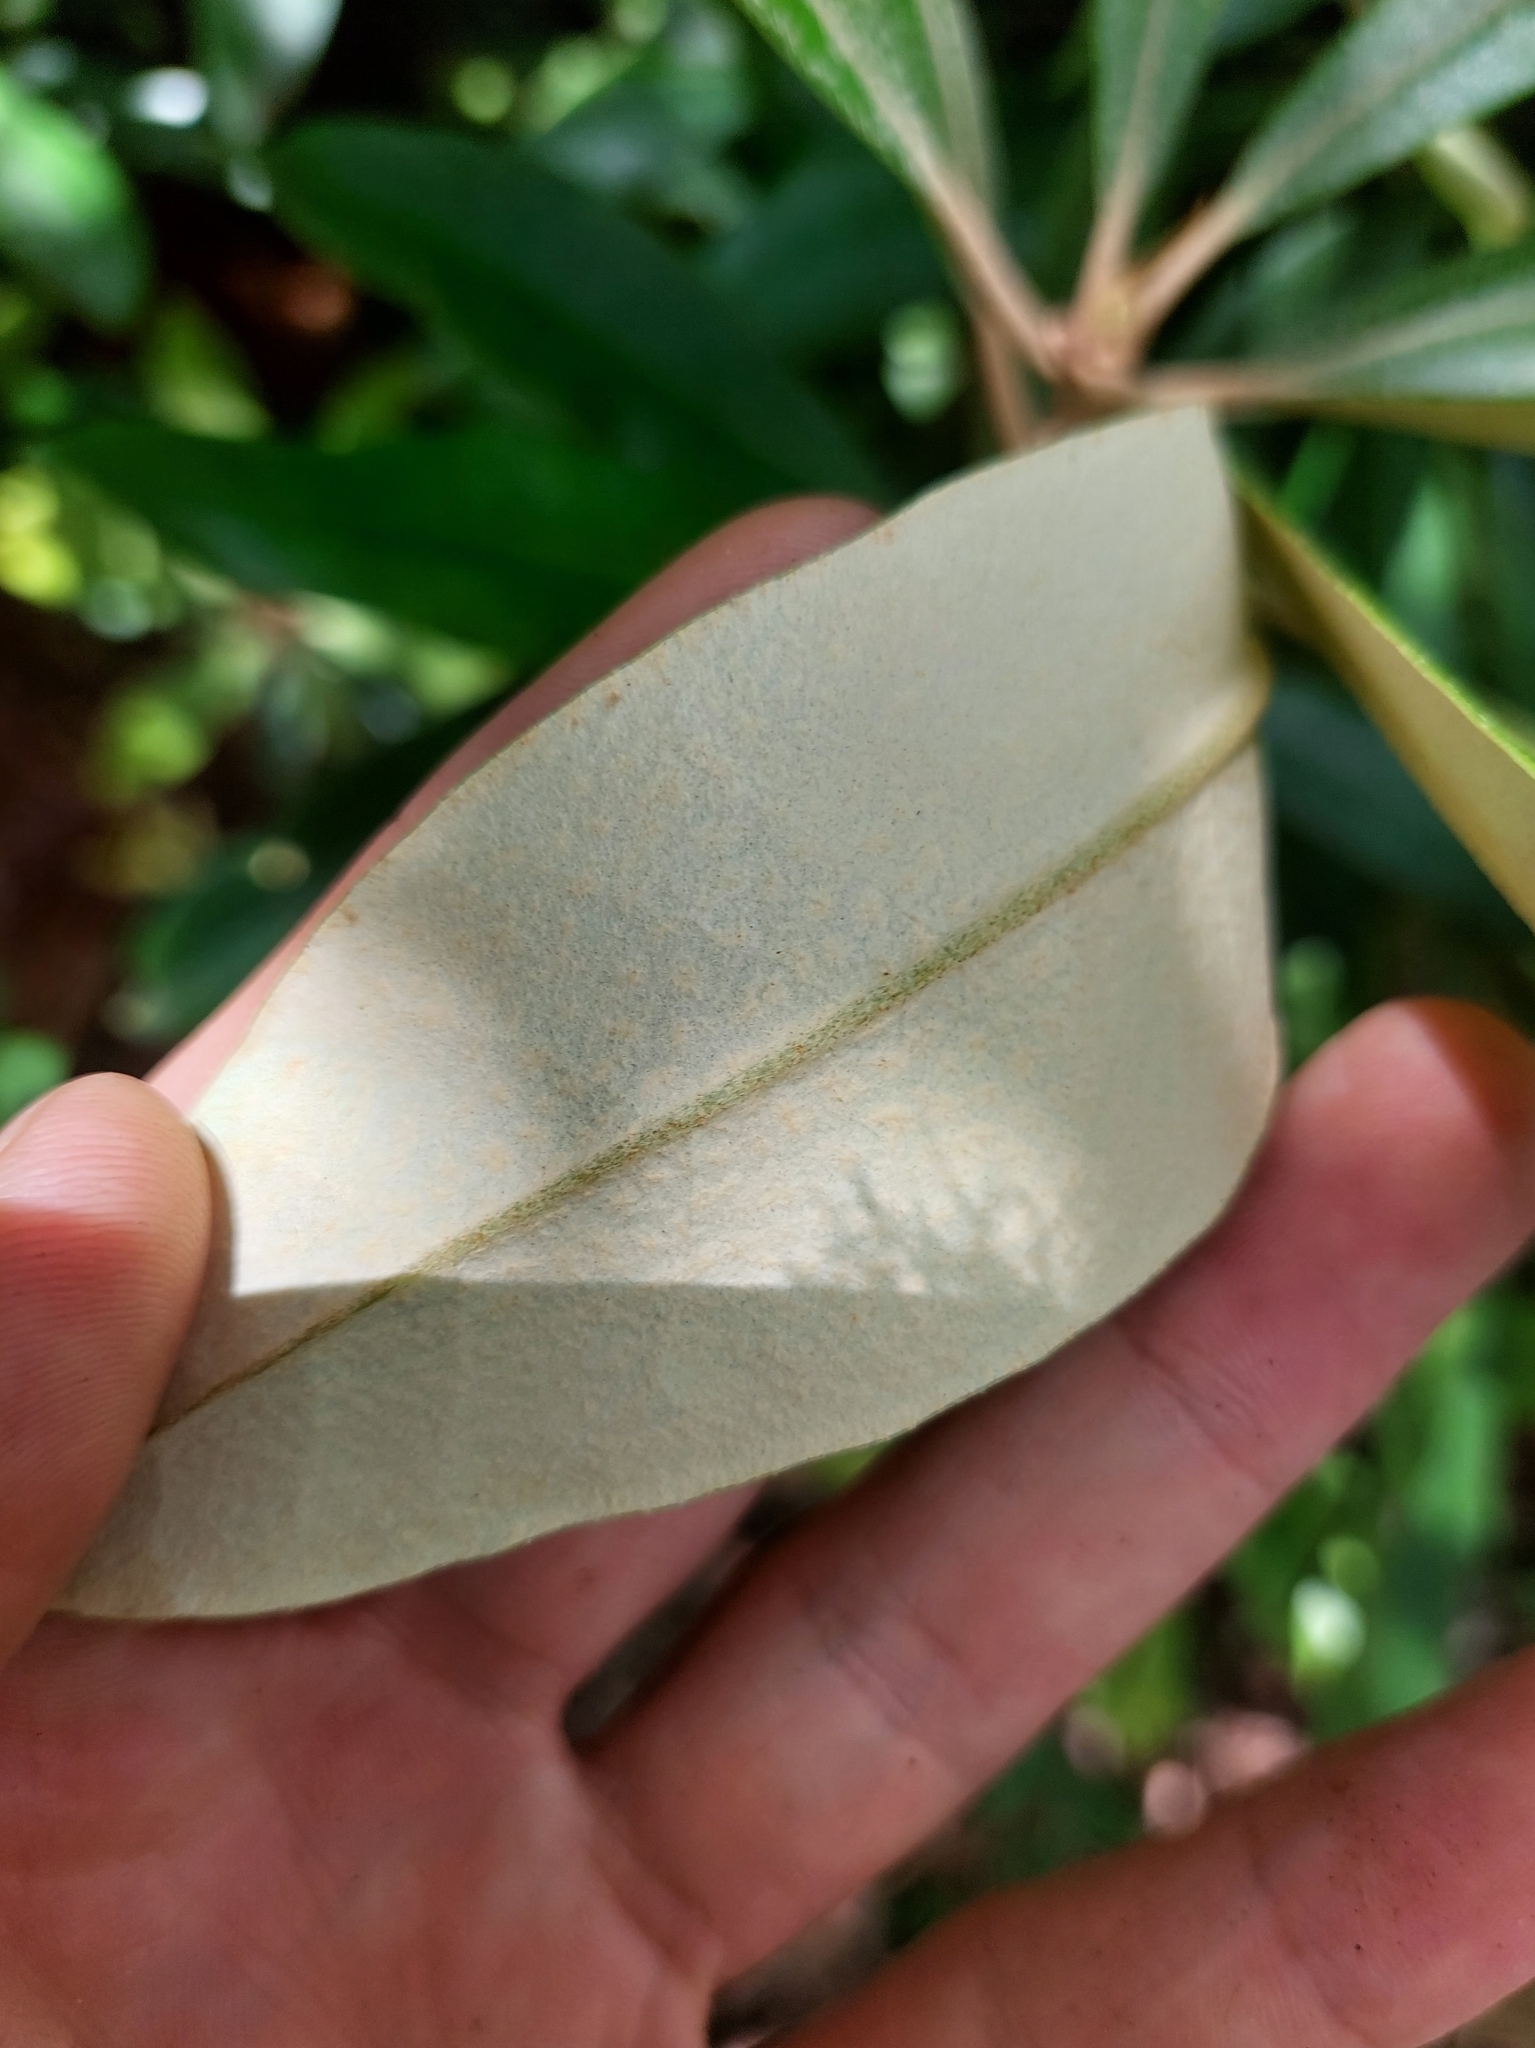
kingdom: Plantae
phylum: Tracheophyta
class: Magnoliopsida
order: Ericales
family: Ericaceae
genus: Rhododendron
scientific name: Rhododendron formosanum
